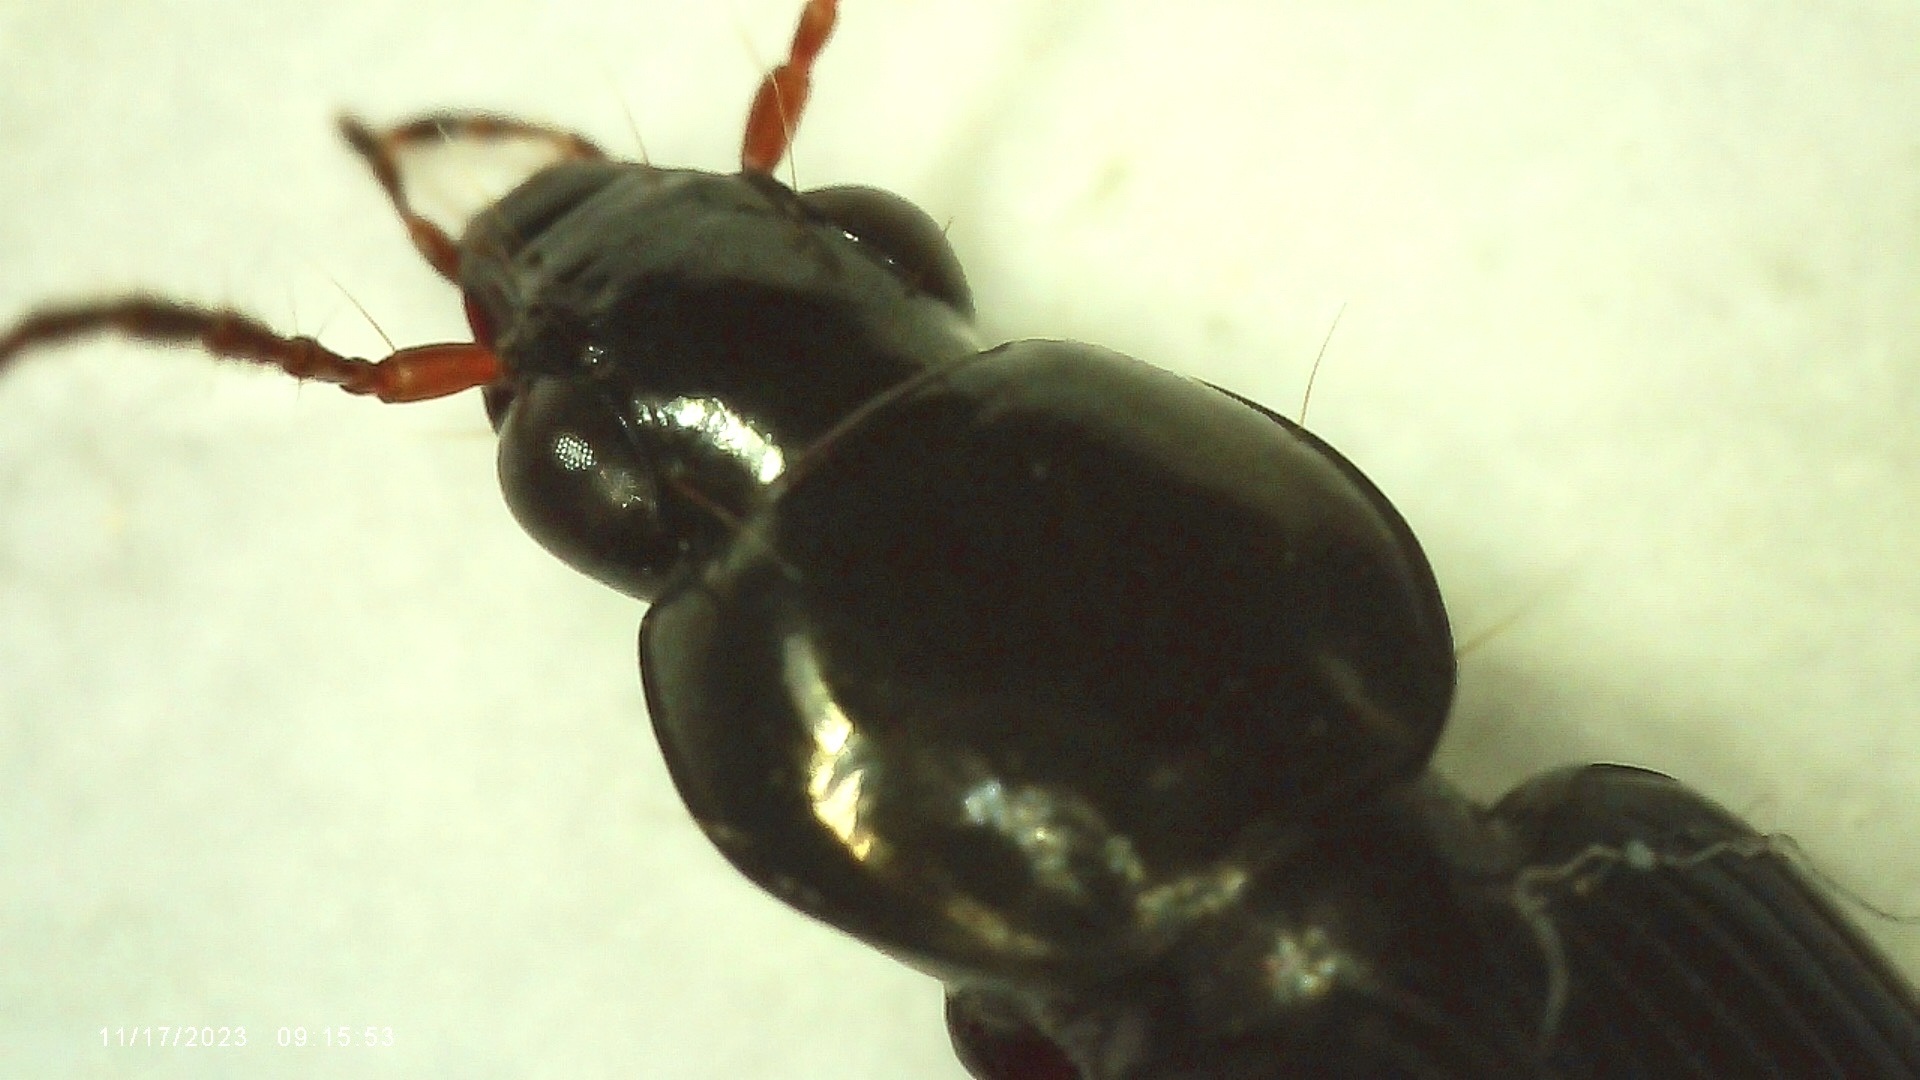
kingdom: Animalia
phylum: Arthropoda
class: Insecta
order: Coleoptera
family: Carabidae
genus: Agonum
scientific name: Agonum punctiforme
